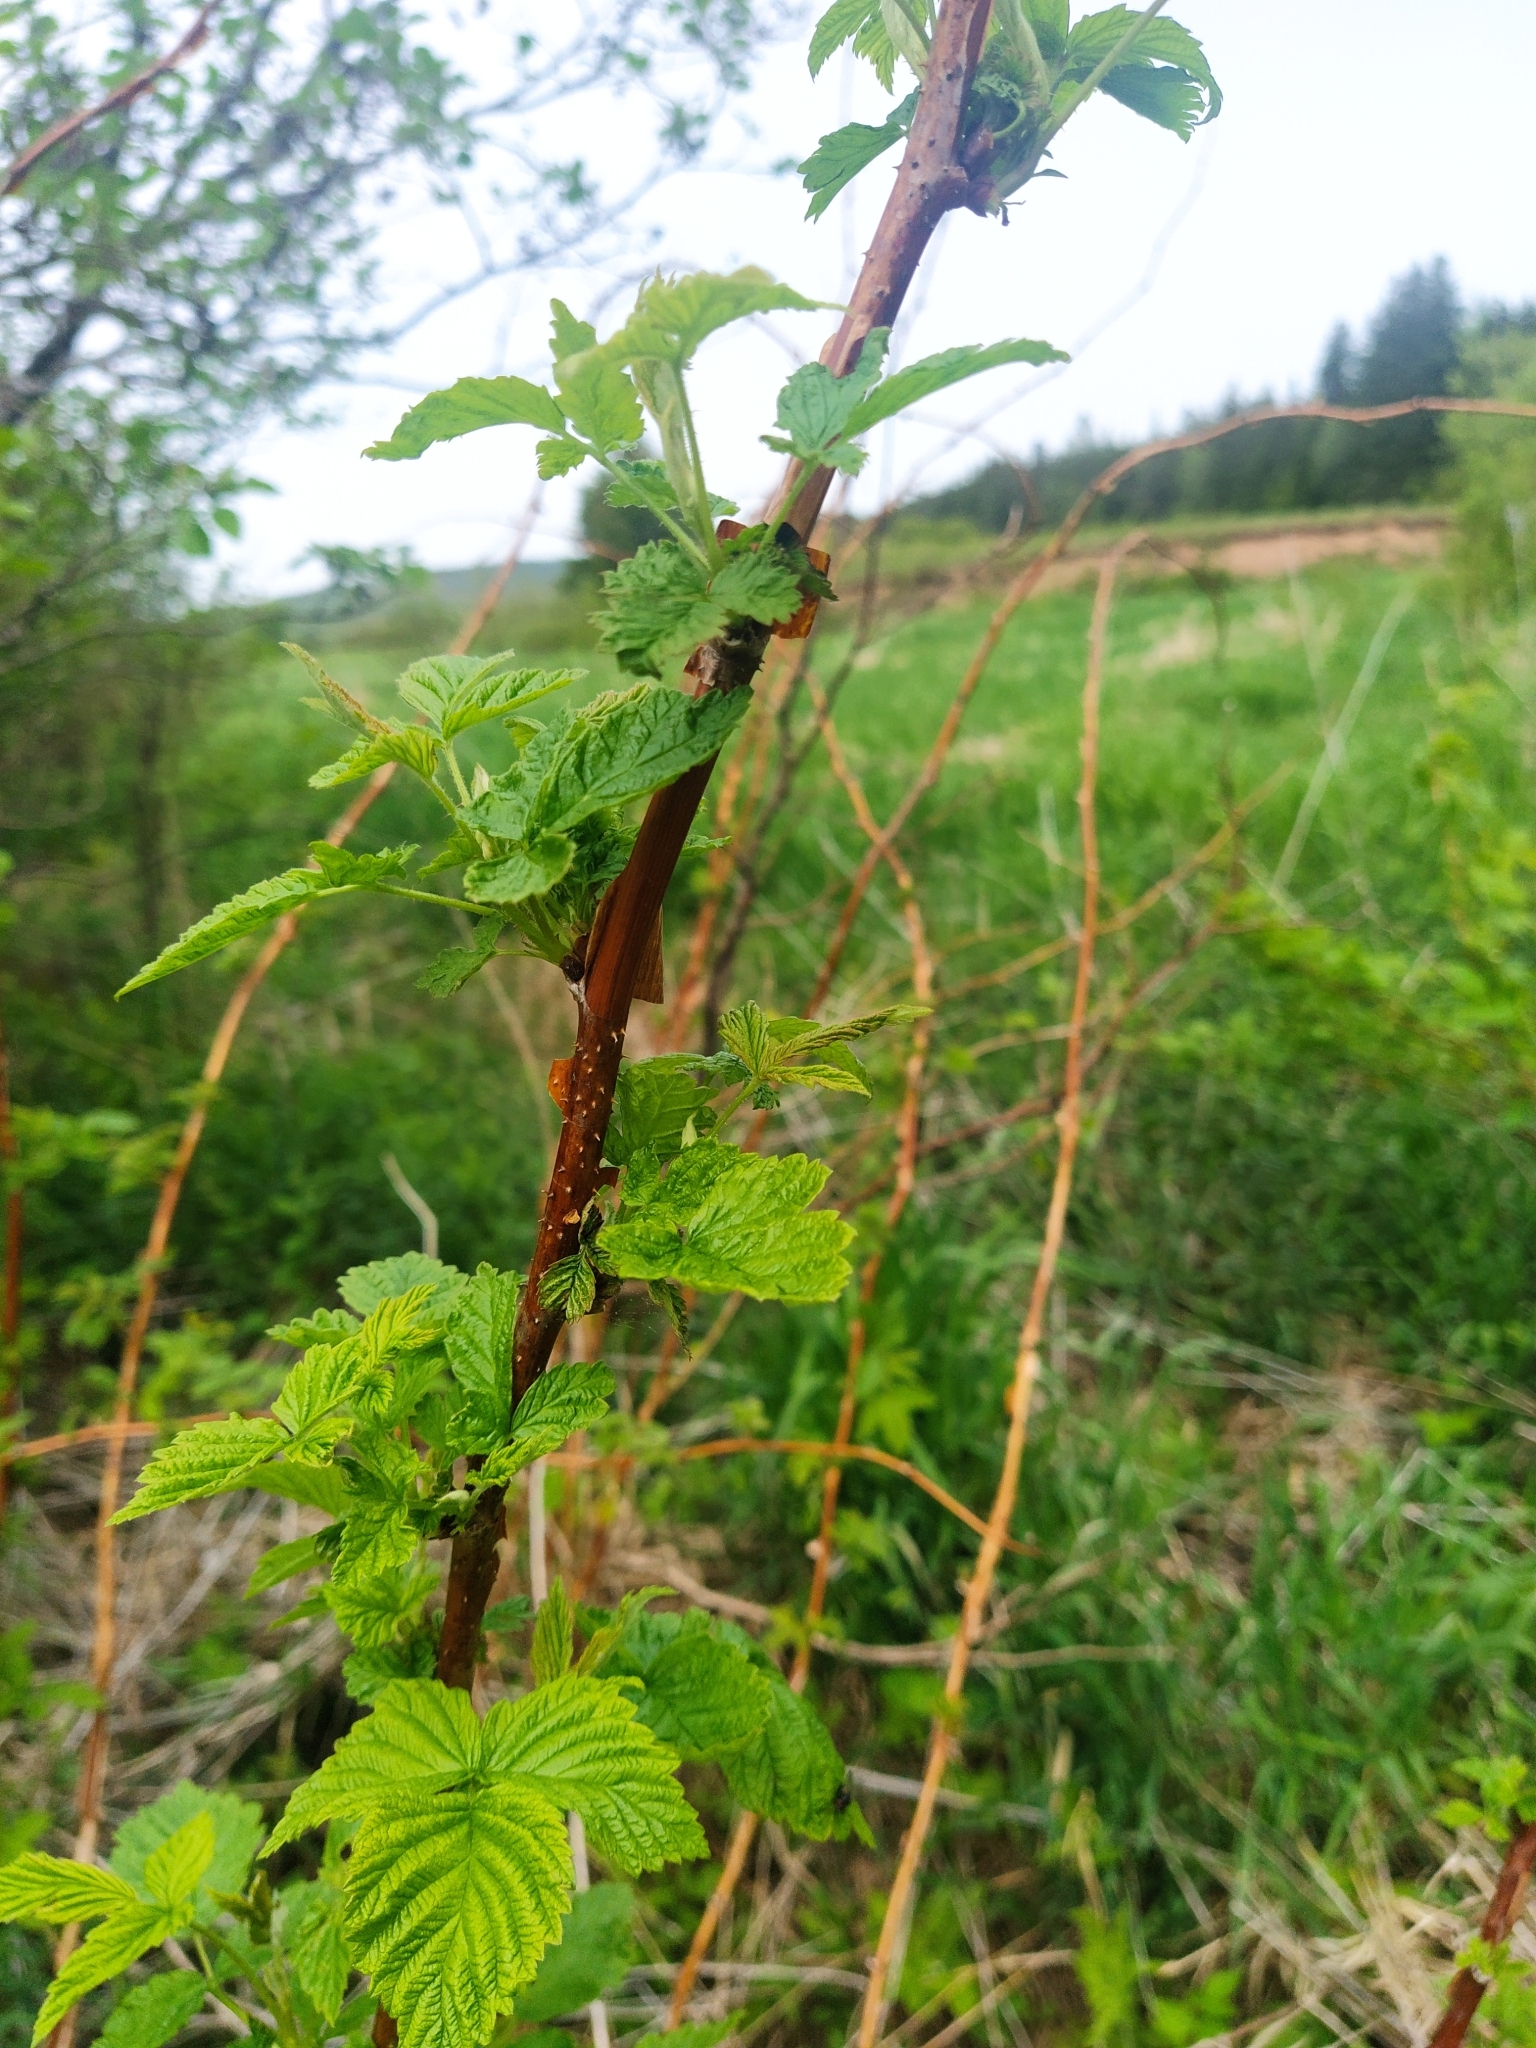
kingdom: Plantae
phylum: Tracheophyta
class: Magnoliopsida
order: Rosales
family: Rosaceae
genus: Rubus
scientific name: Rubus idaeus
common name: Raspberry
